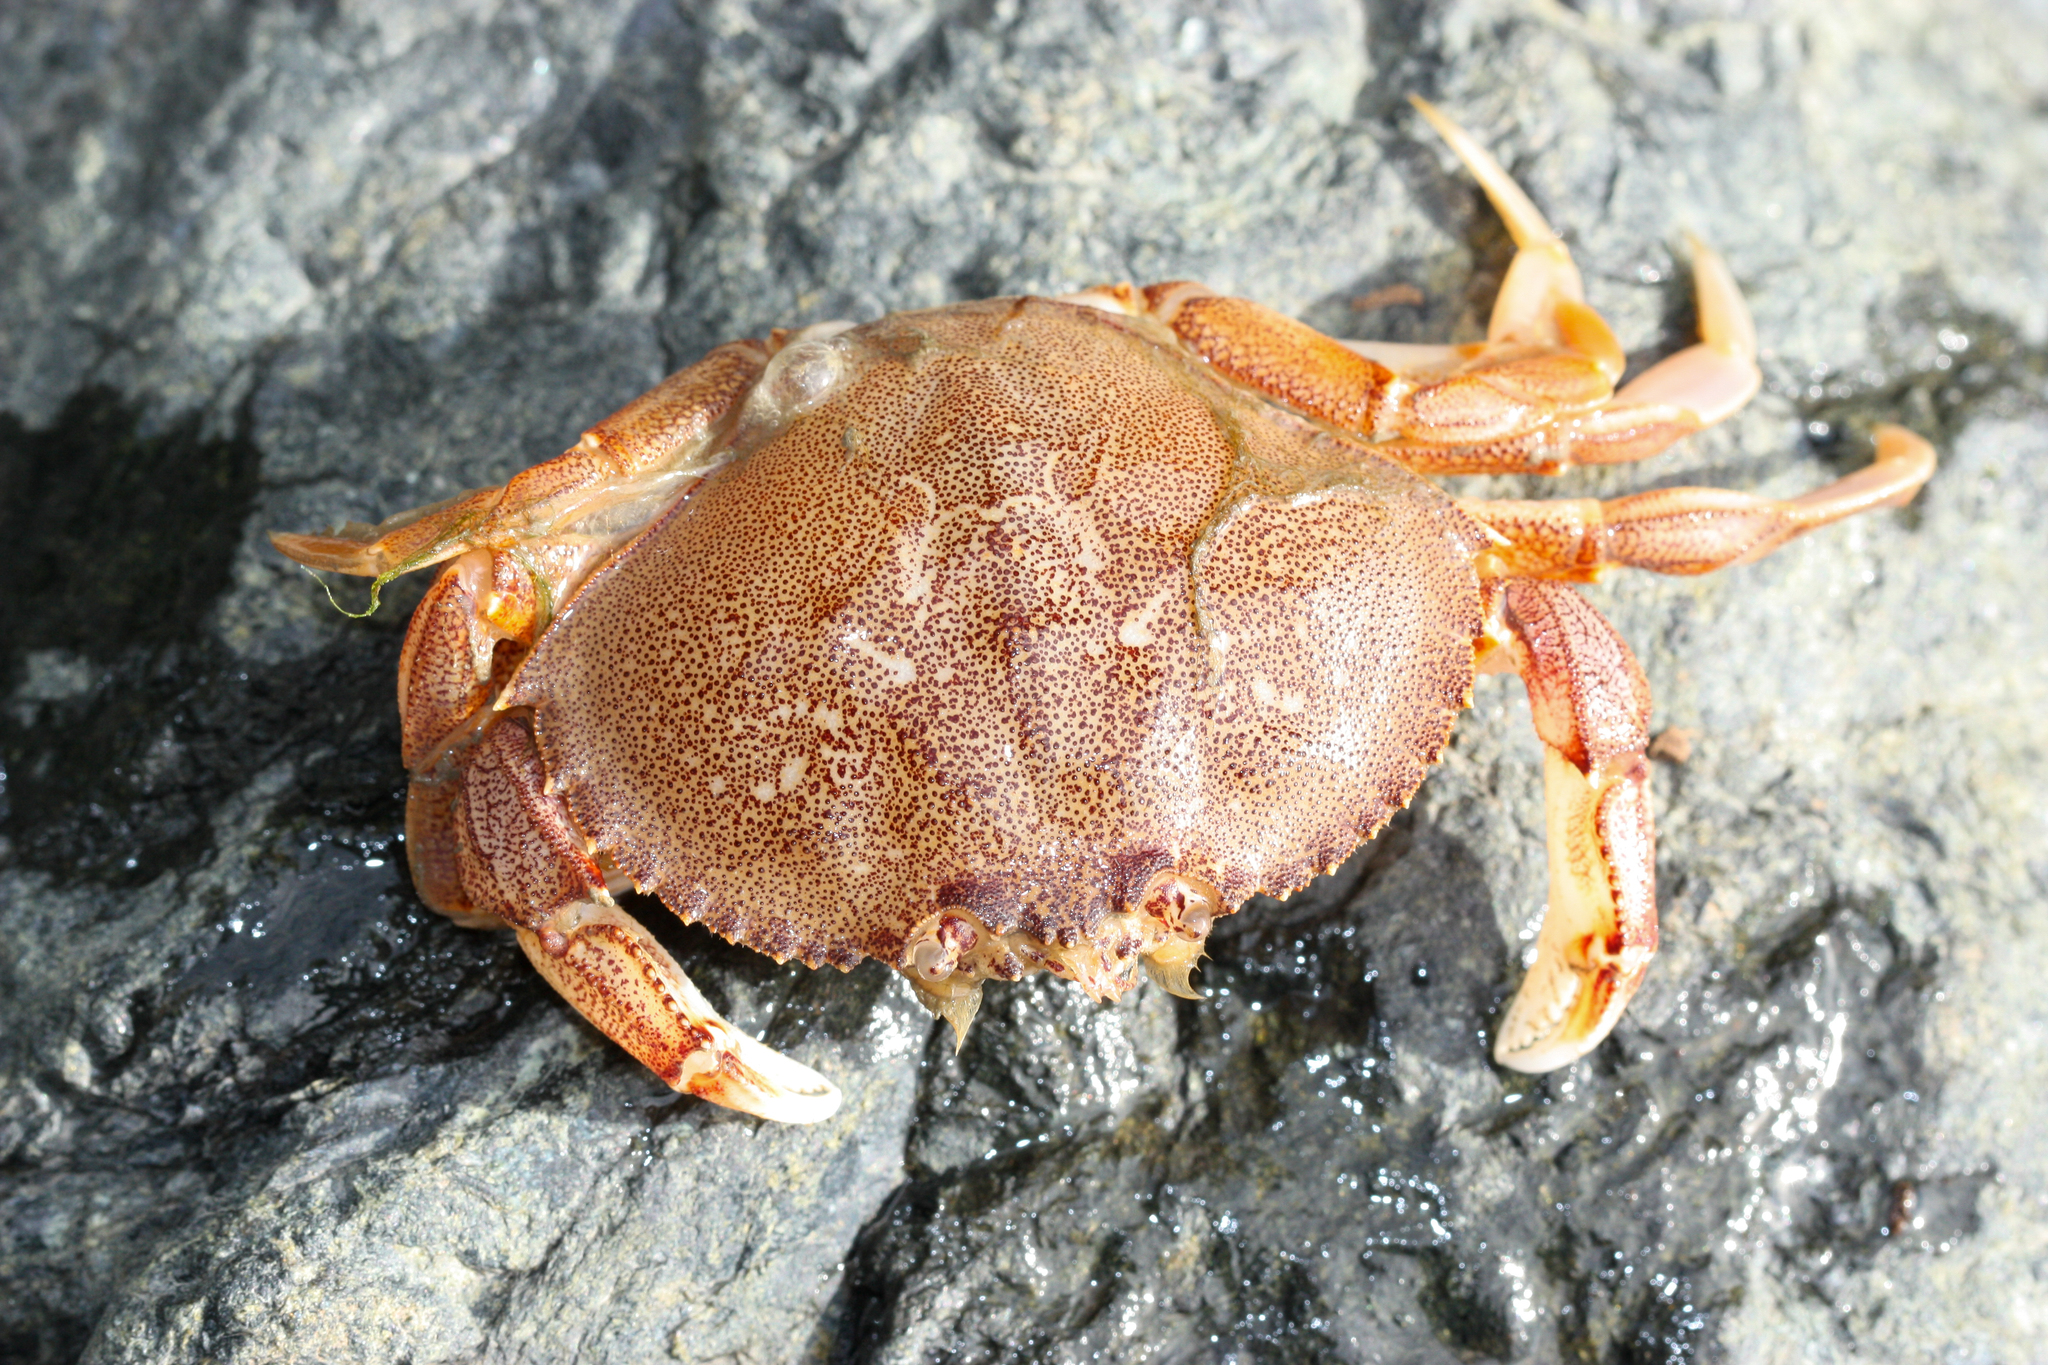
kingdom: Animalia
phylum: Arthropoda
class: Malacostraca
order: Decapoda
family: Cancridae
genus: Metacarcinus
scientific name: Metacarcinus magister
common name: Californian crab
